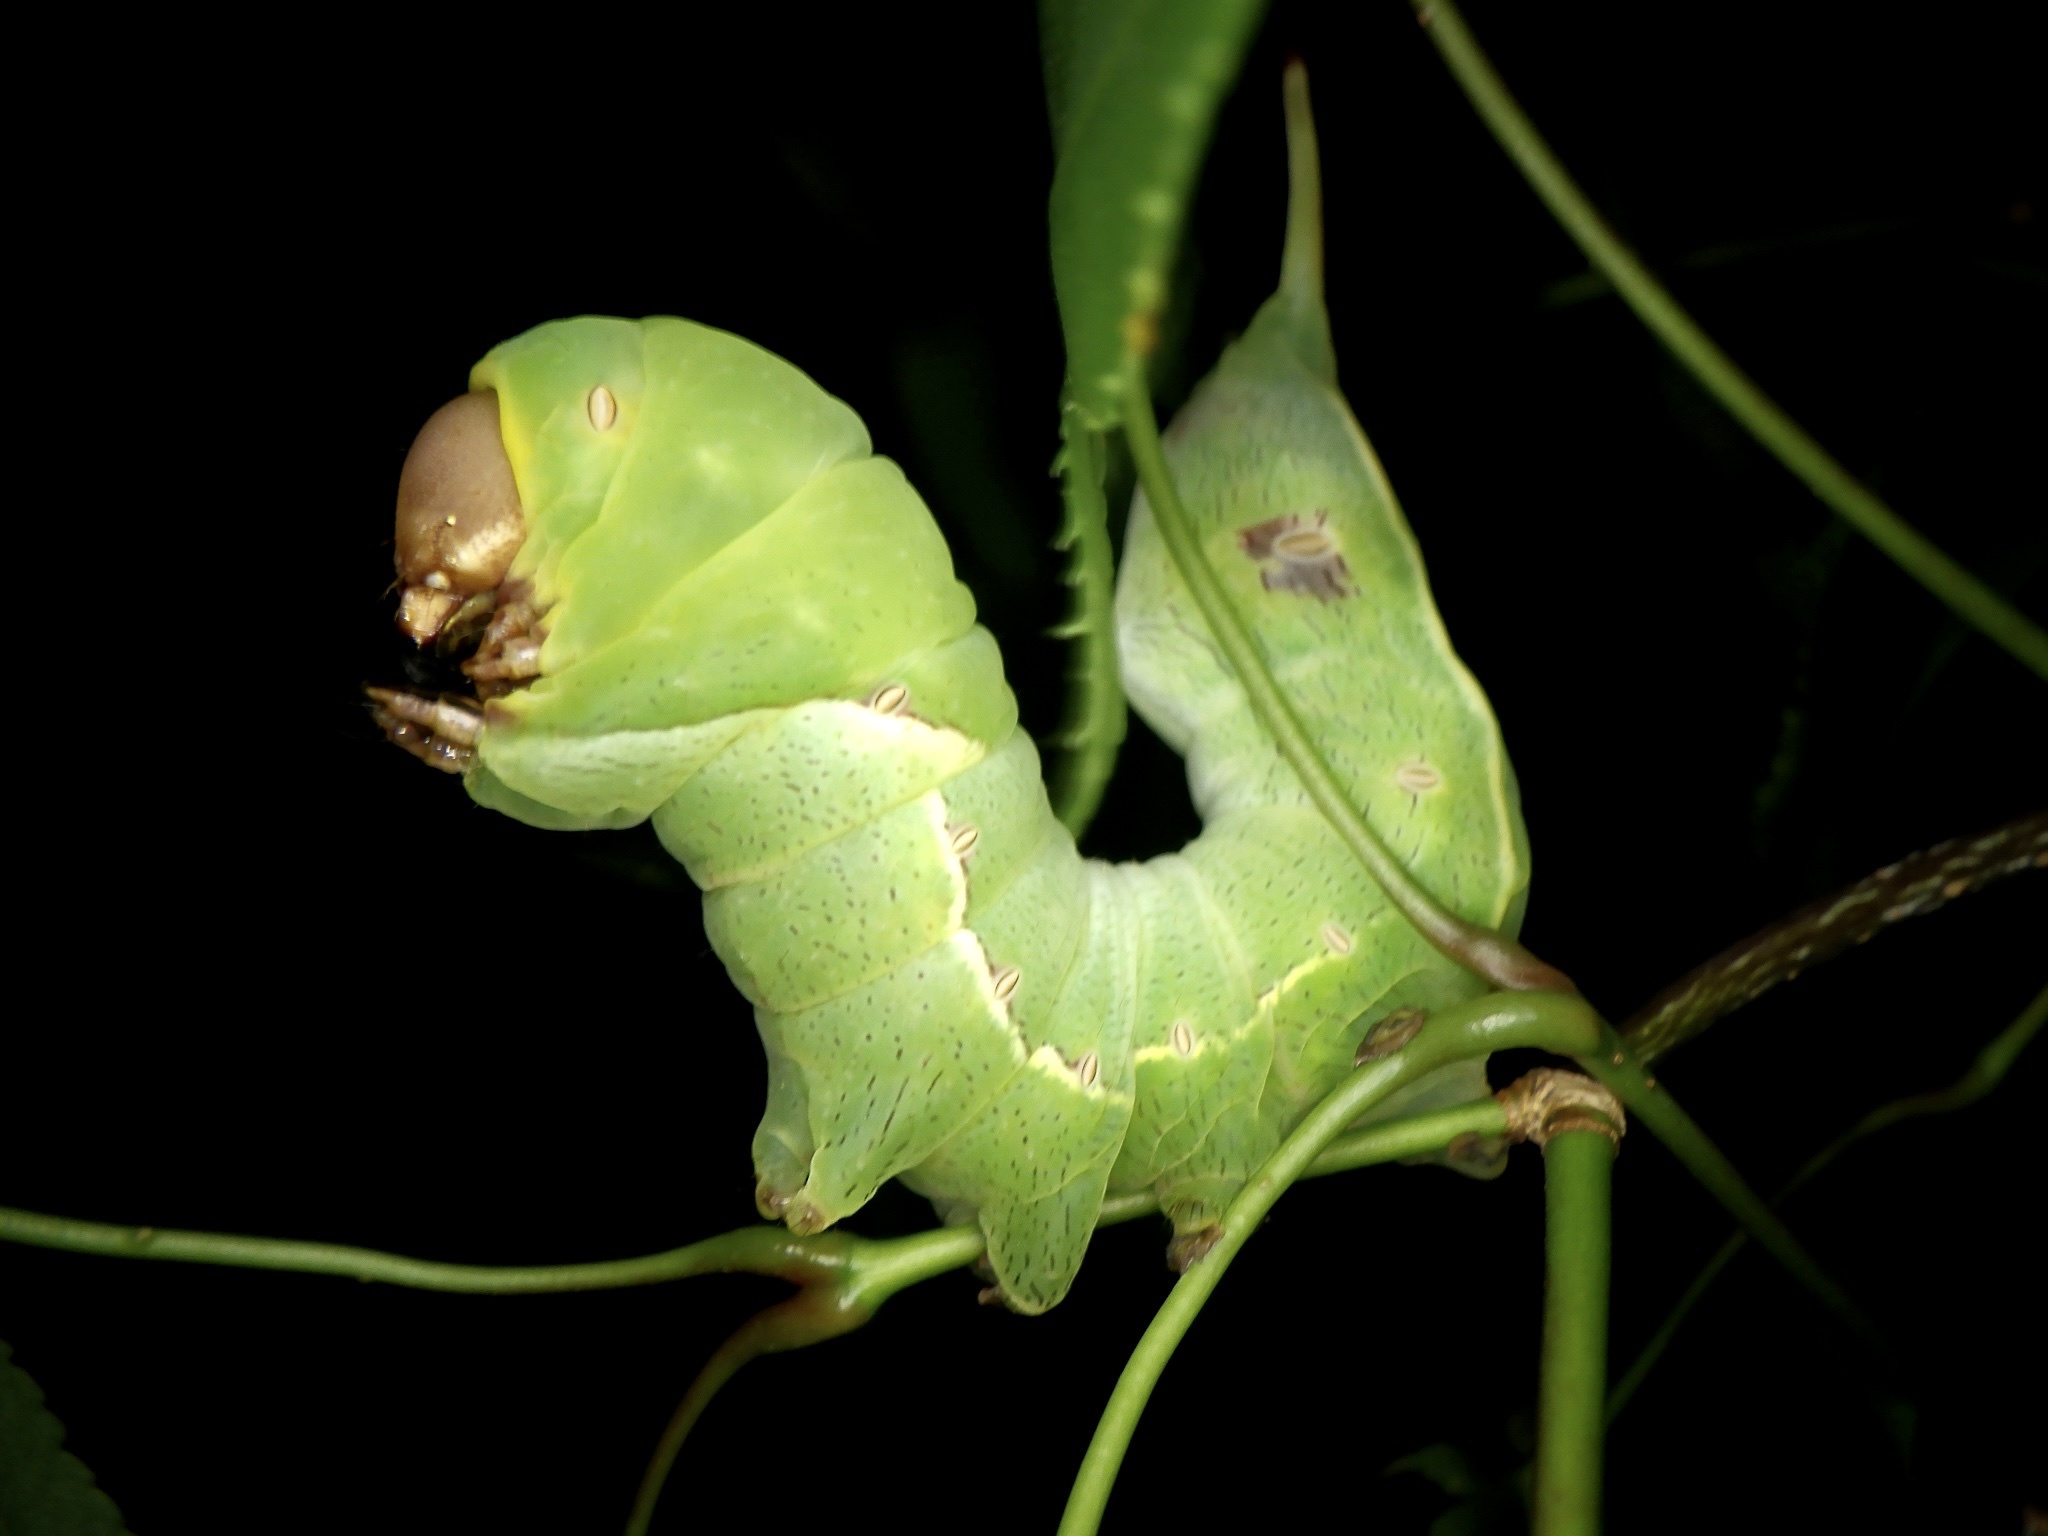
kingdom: Animalia
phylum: Arthropoda
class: Insecta
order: Lepidoptera
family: Notodontidae
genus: Tarsolepis
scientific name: Tarsolepis japonica
